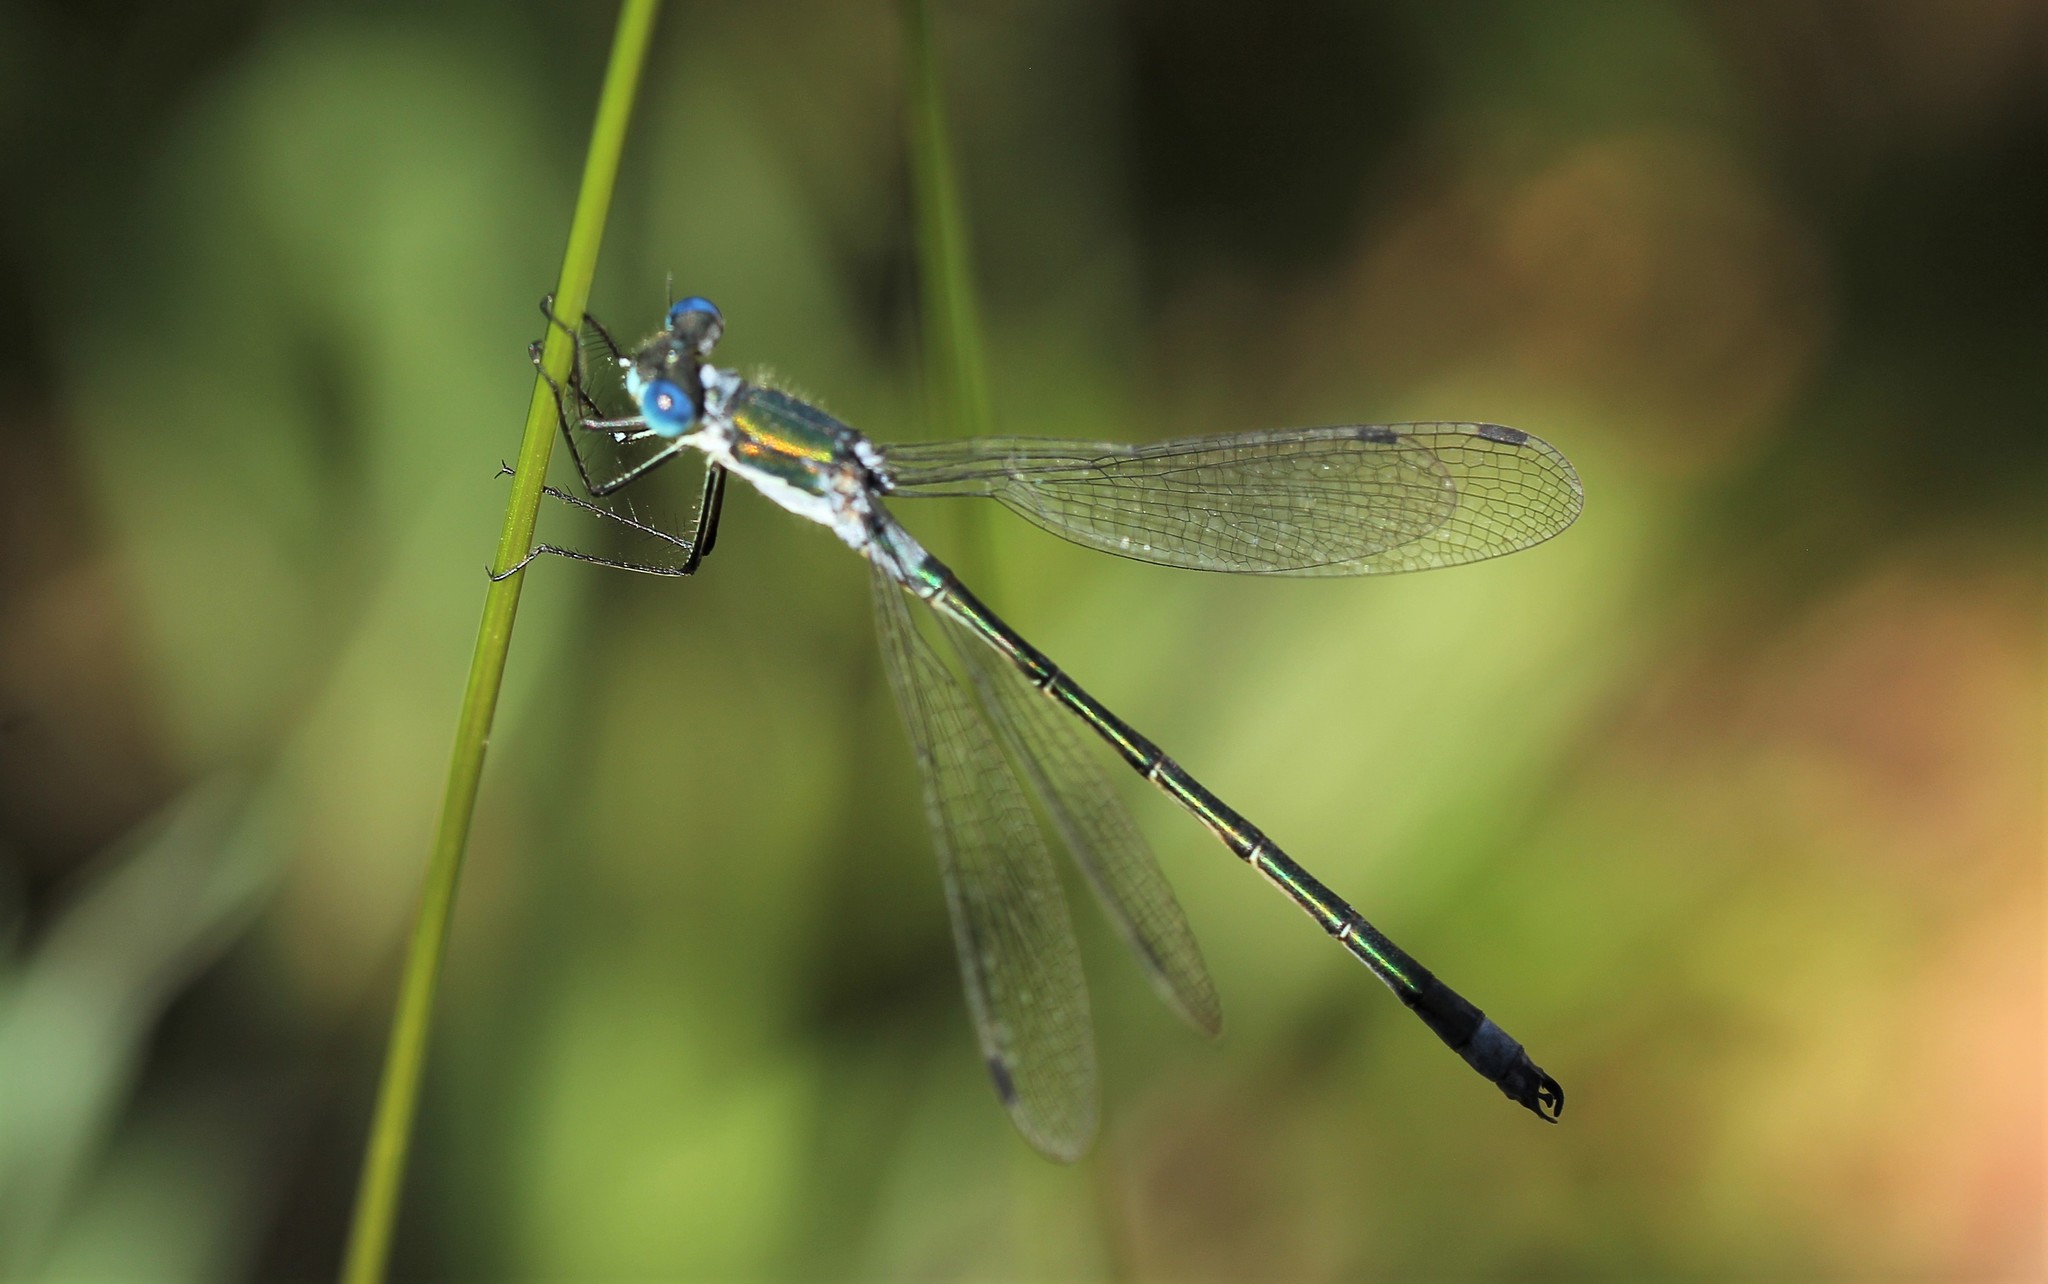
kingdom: Animalia
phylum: Arthropoda
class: Insecta
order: Odonata
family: Lestidae
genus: Lestes
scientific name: Lestes dryas
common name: Scarce emerald damselfly
